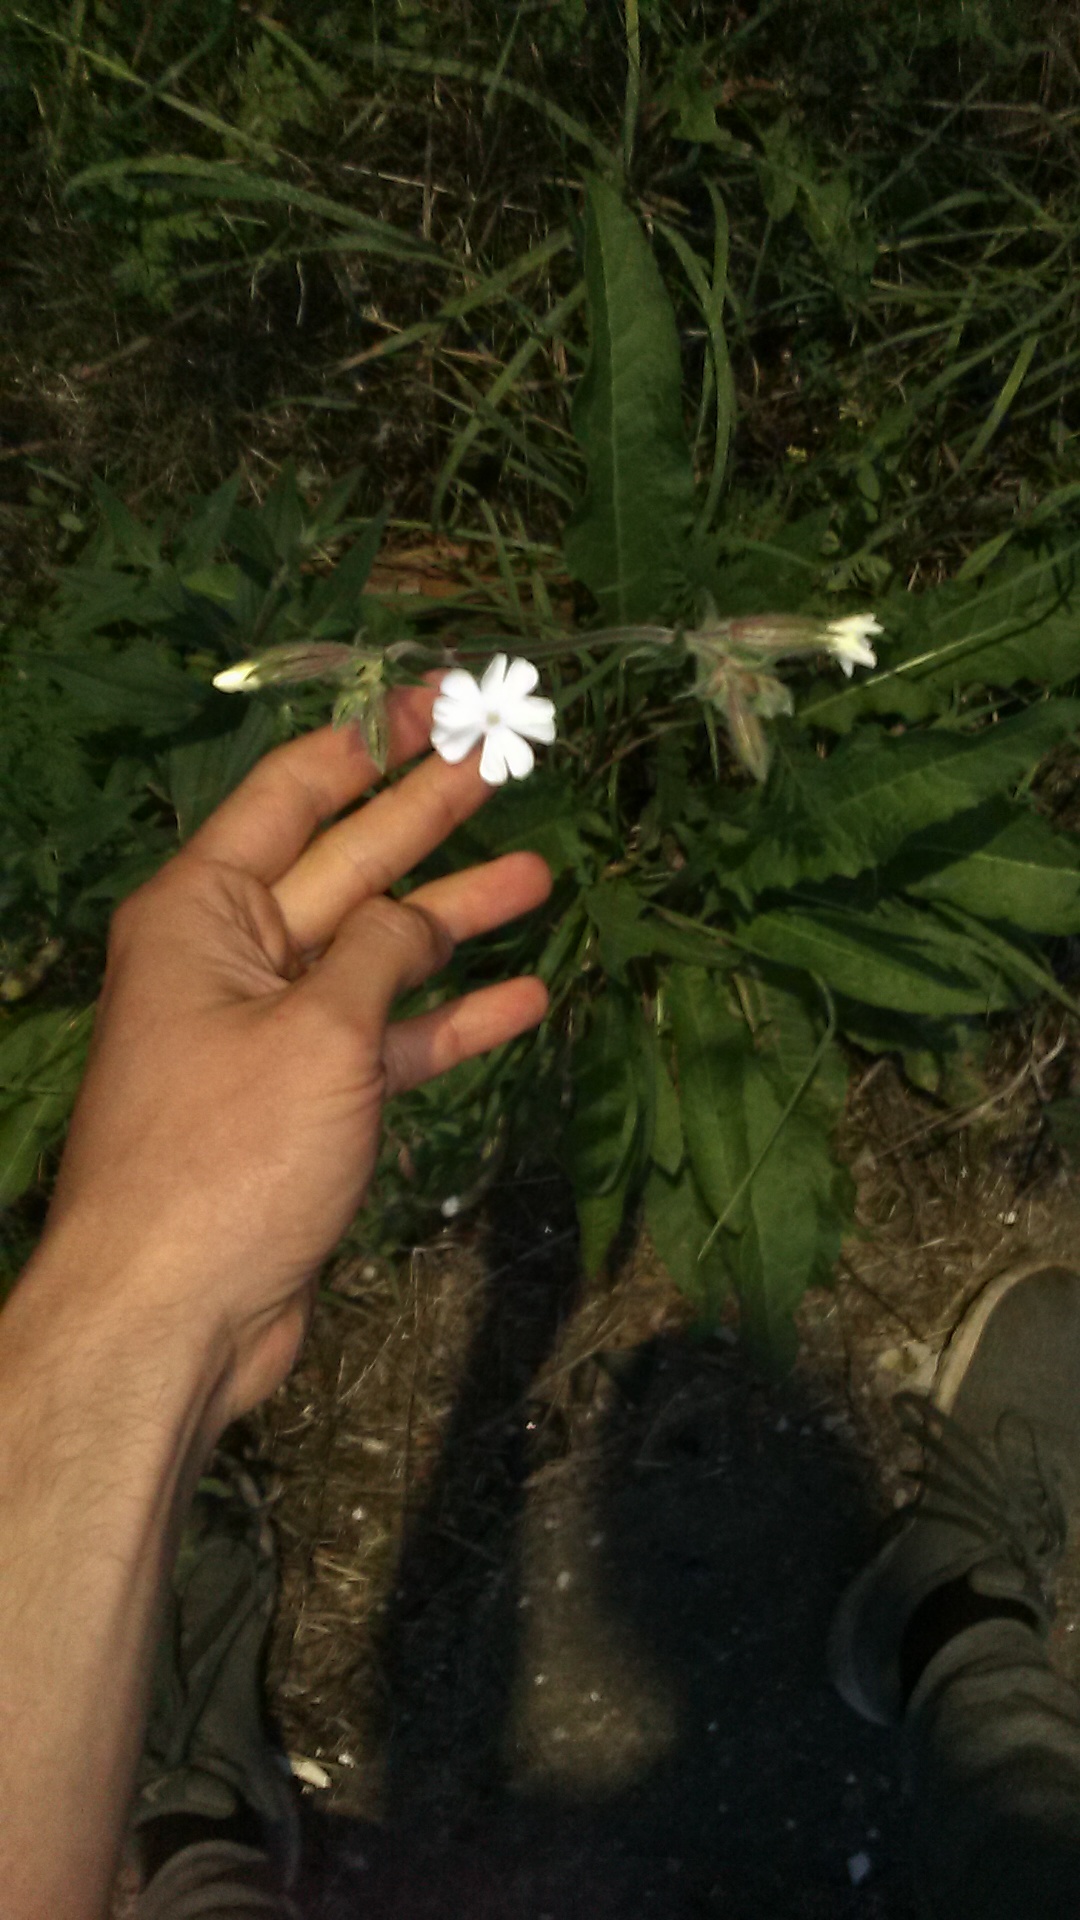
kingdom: Plantae
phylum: Tracheophyta
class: Magnoliopsida
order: Caryophyllales
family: Caryophyllaceae
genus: Silene
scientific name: Silene latifolia
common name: White campion
